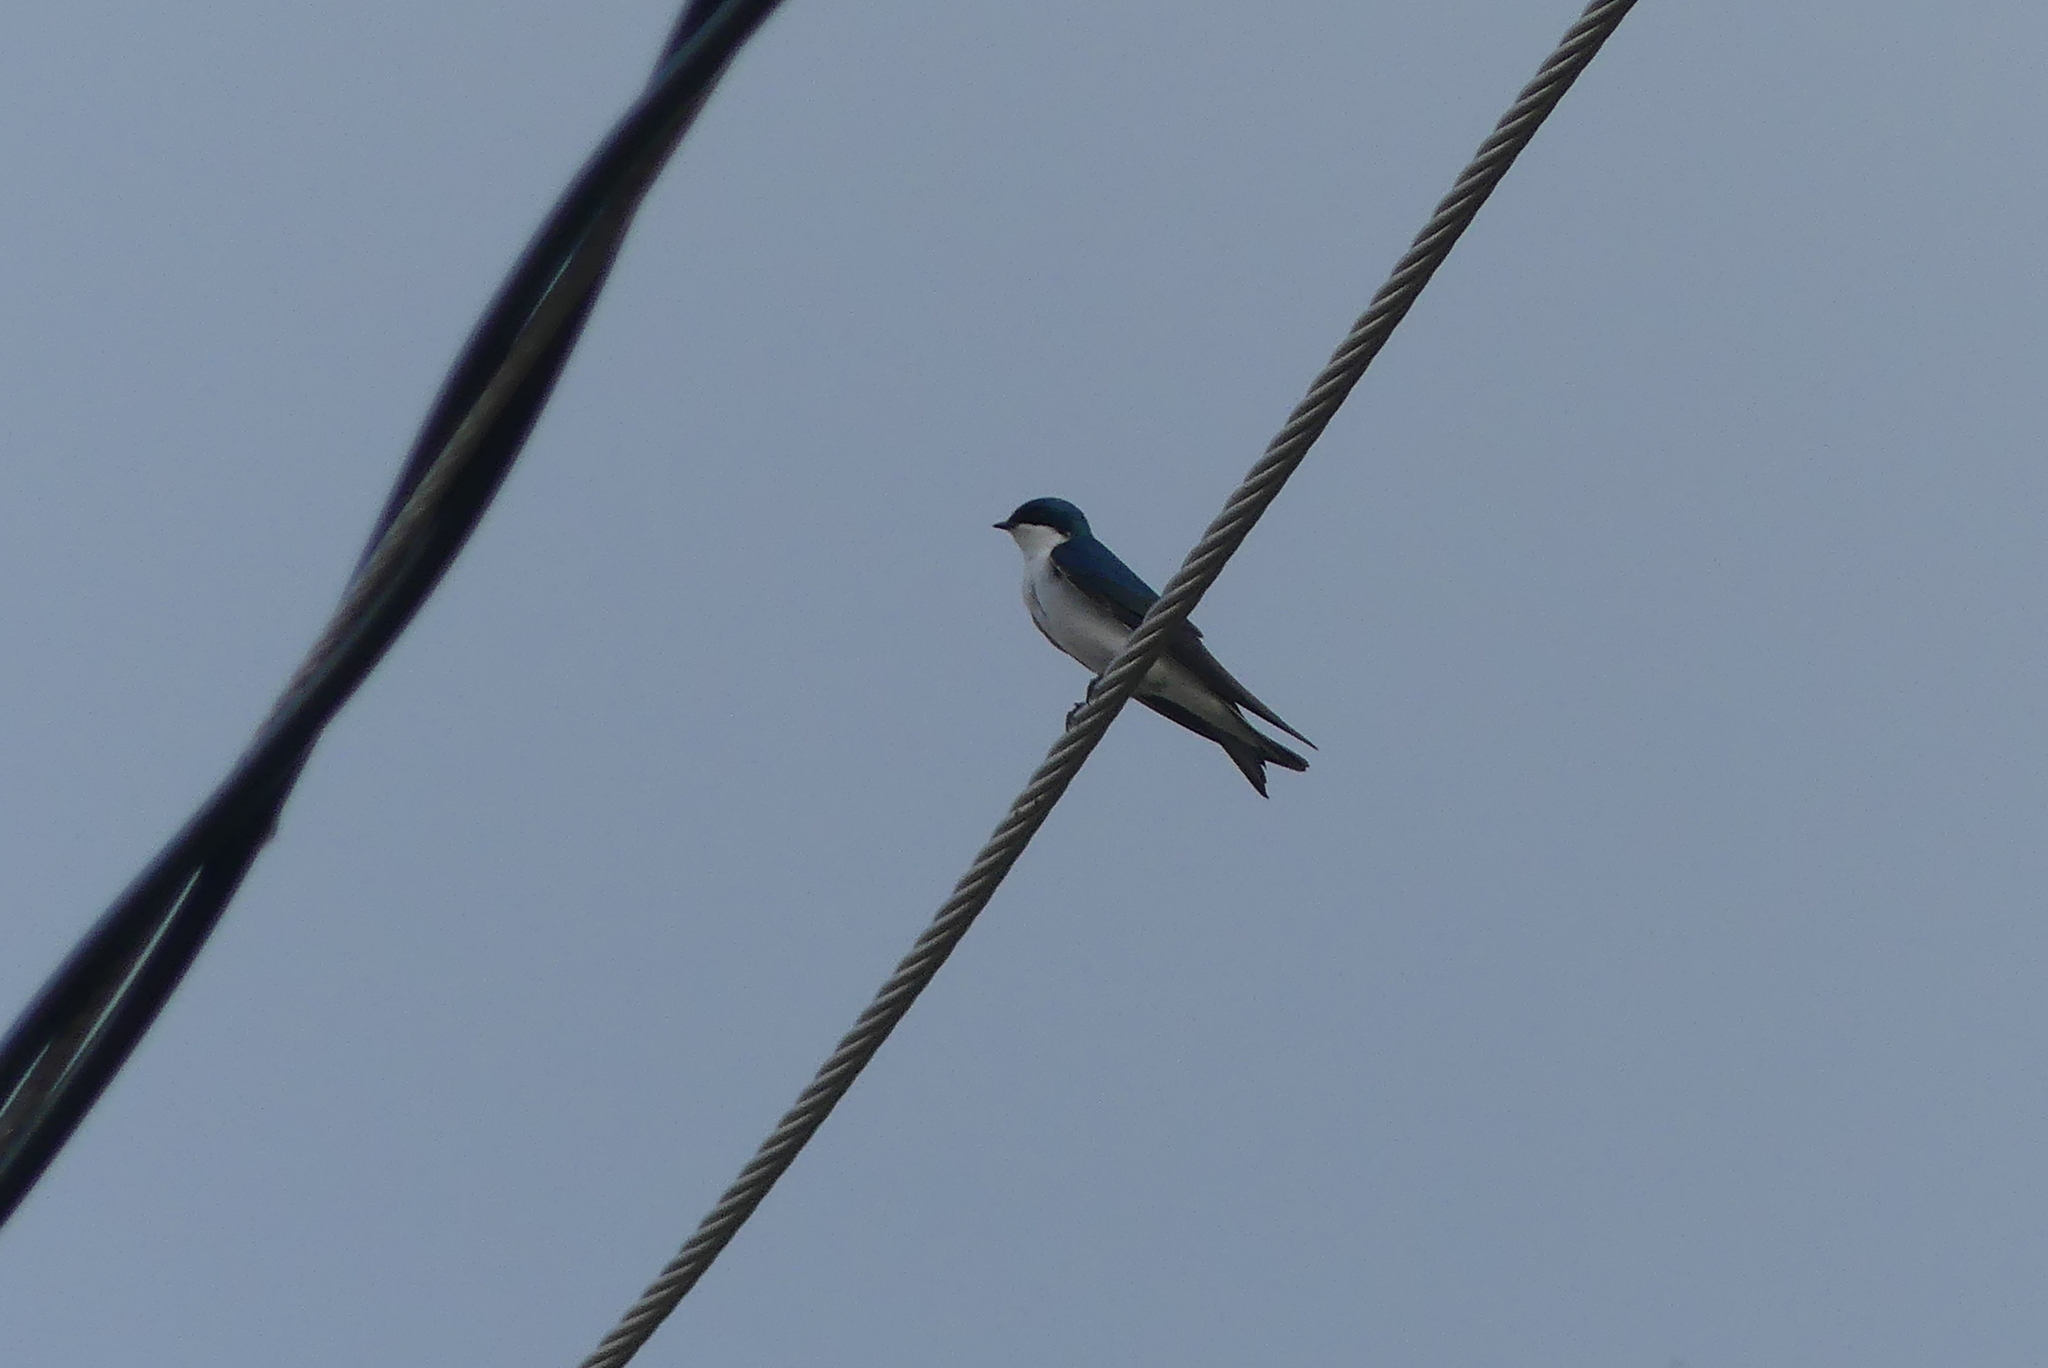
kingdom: Animalia
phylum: Chordata
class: Aves
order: Passeriformes
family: Hirundinidae
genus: Tachycineta
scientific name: Tachycineta bicolor
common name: Tree swallow
